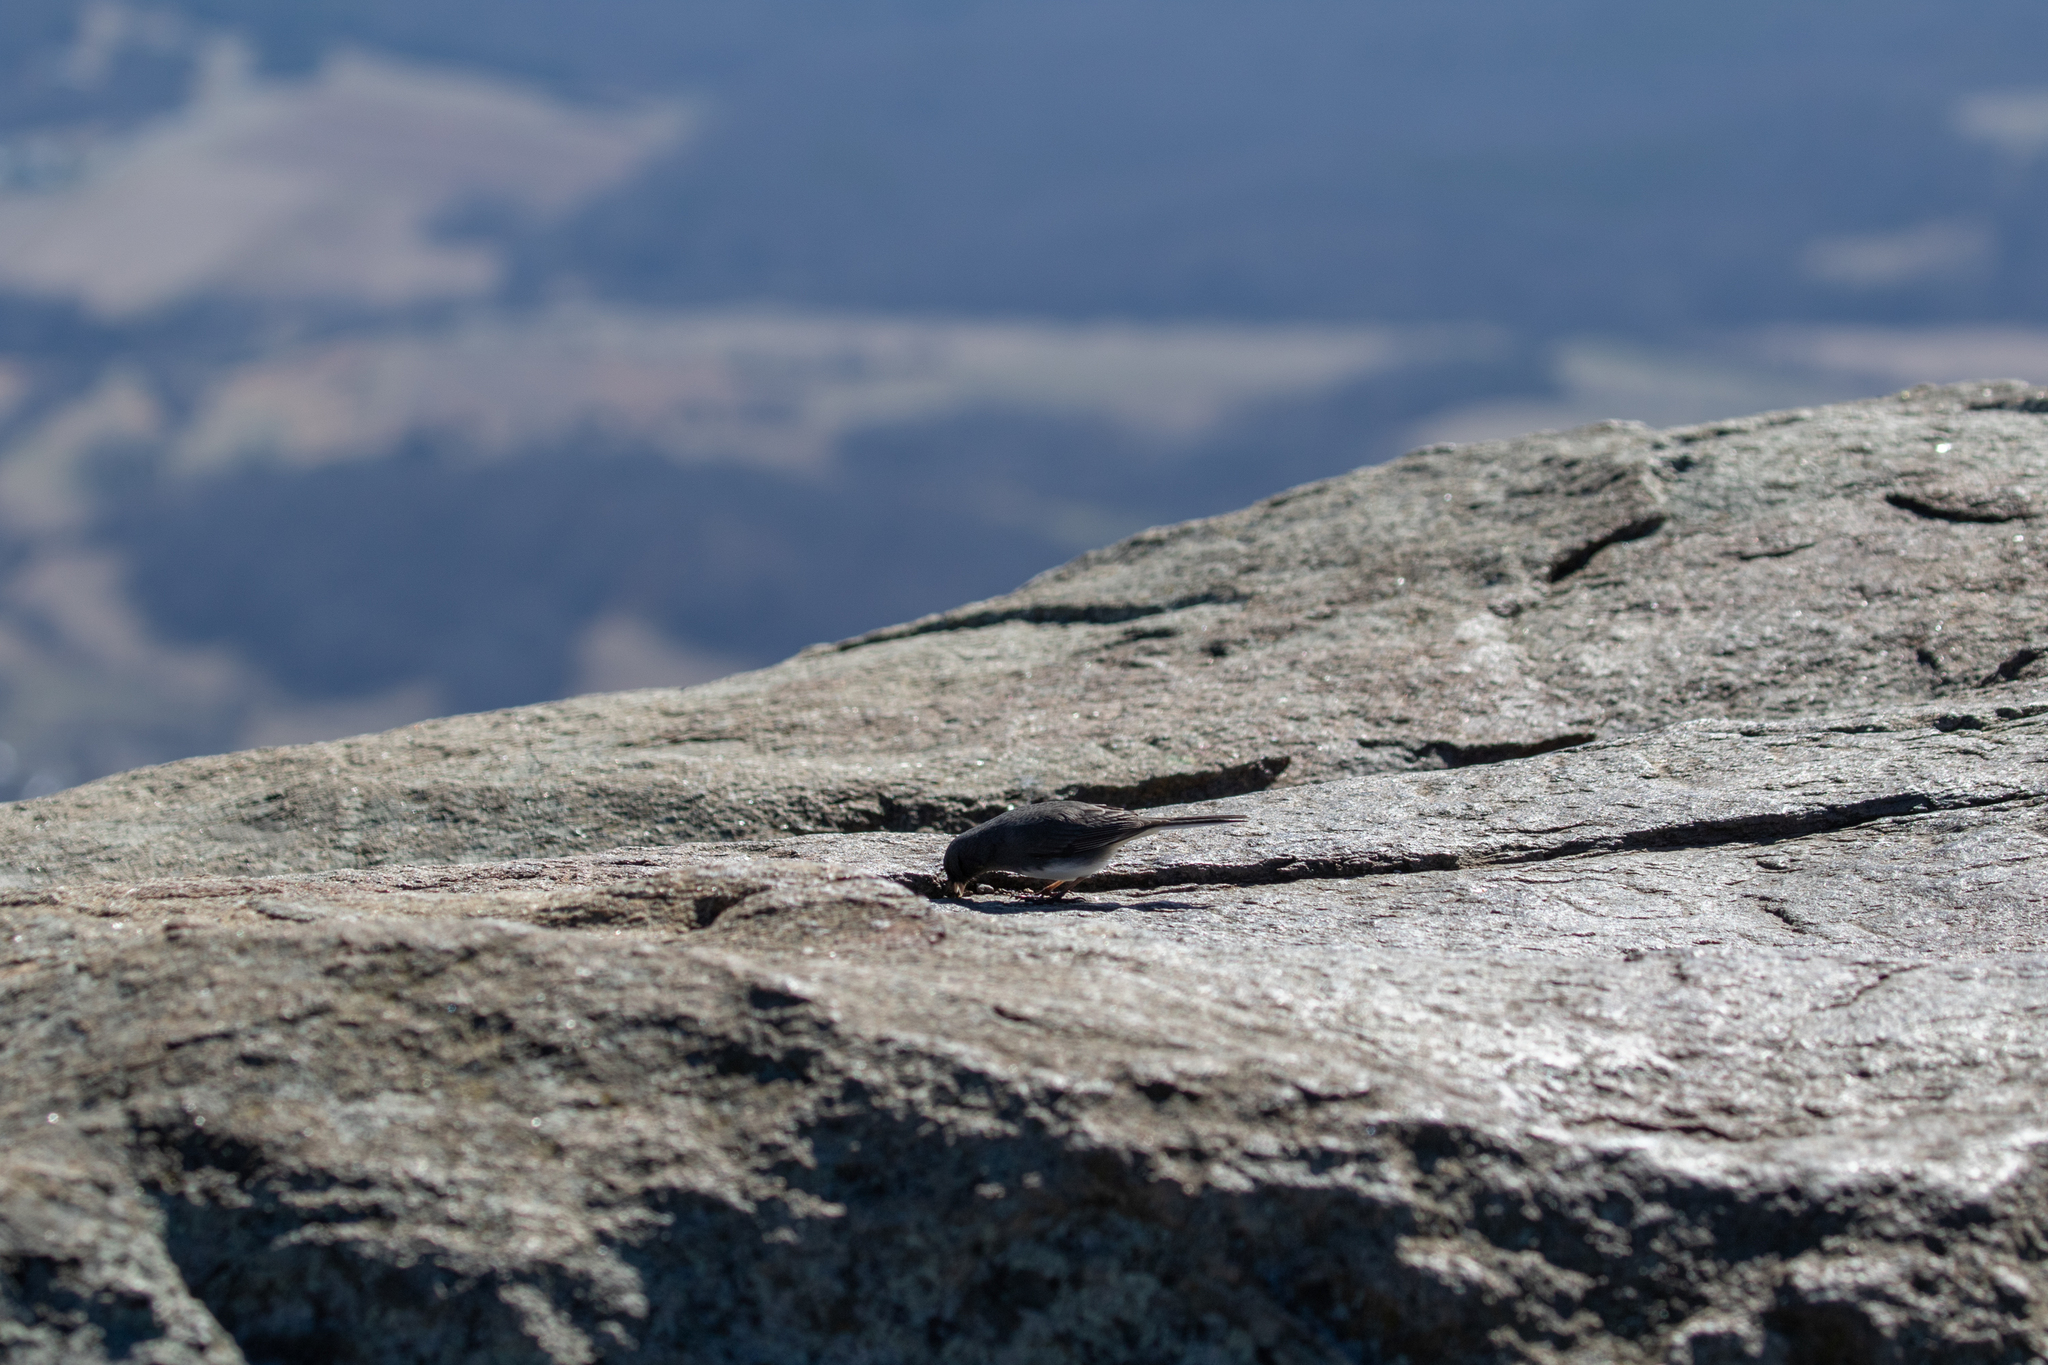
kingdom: Animalia
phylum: Chordata
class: Aves
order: Passeriformes
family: Passerellidae
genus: Junco
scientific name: Junco hyemalis
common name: Dark-eyed junco
